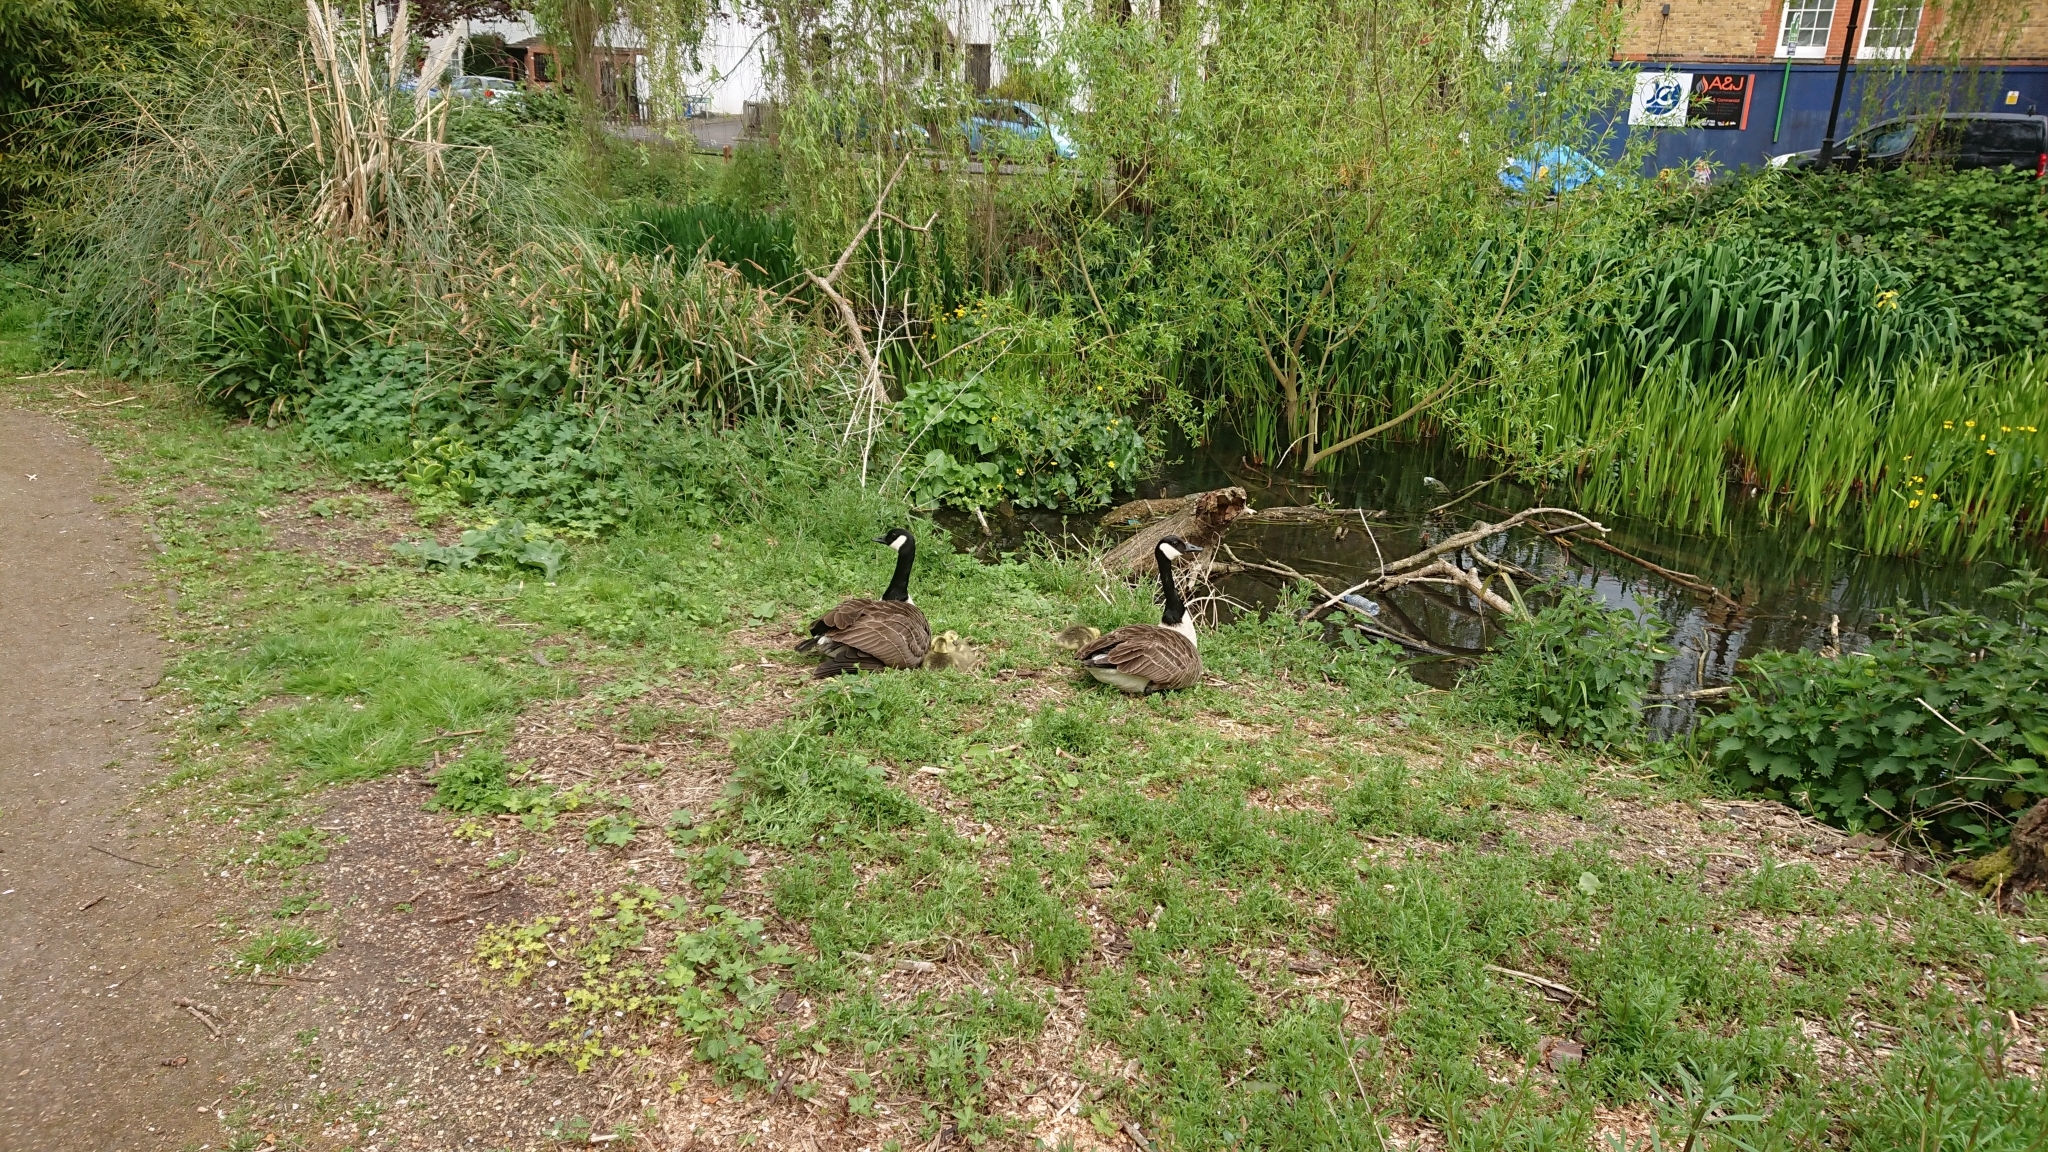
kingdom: Animalia
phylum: Chordata
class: Aves
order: Anseriformes
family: Anatidae
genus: Branta
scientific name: Branta canadensis
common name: Canada goose
